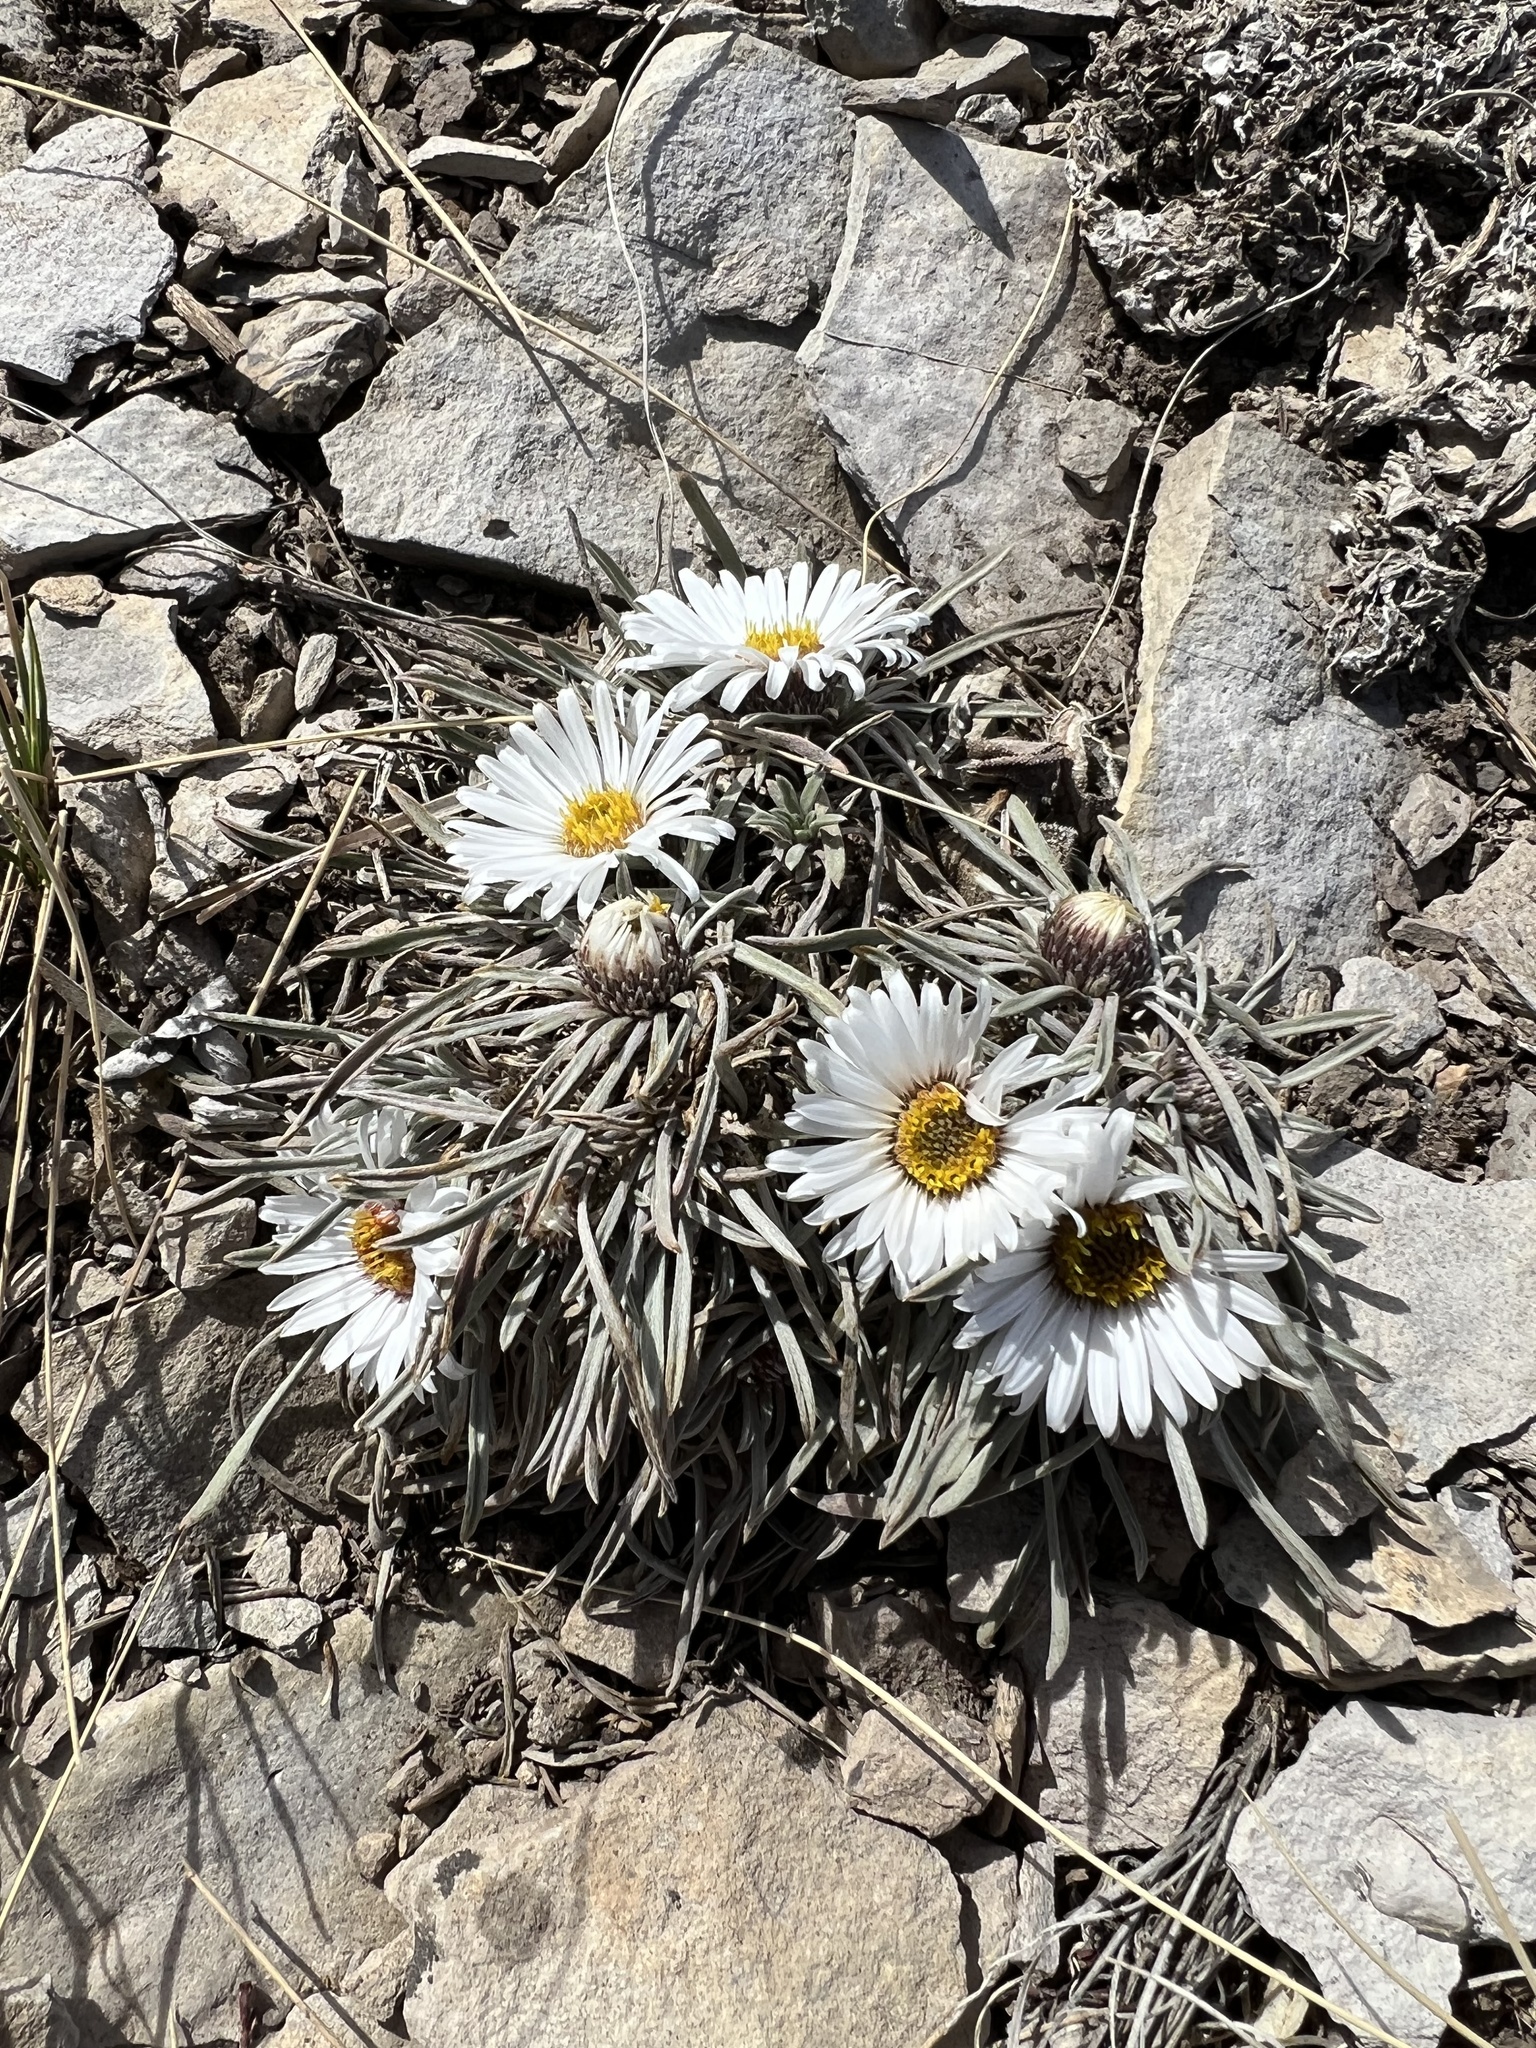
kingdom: Plantae
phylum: Tracheophyta
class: Magnoliopsida
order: Asterales
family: Asteraceae
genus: Townsendia
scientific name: Townsendia hookeri
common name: Hooker's townsend daisy
